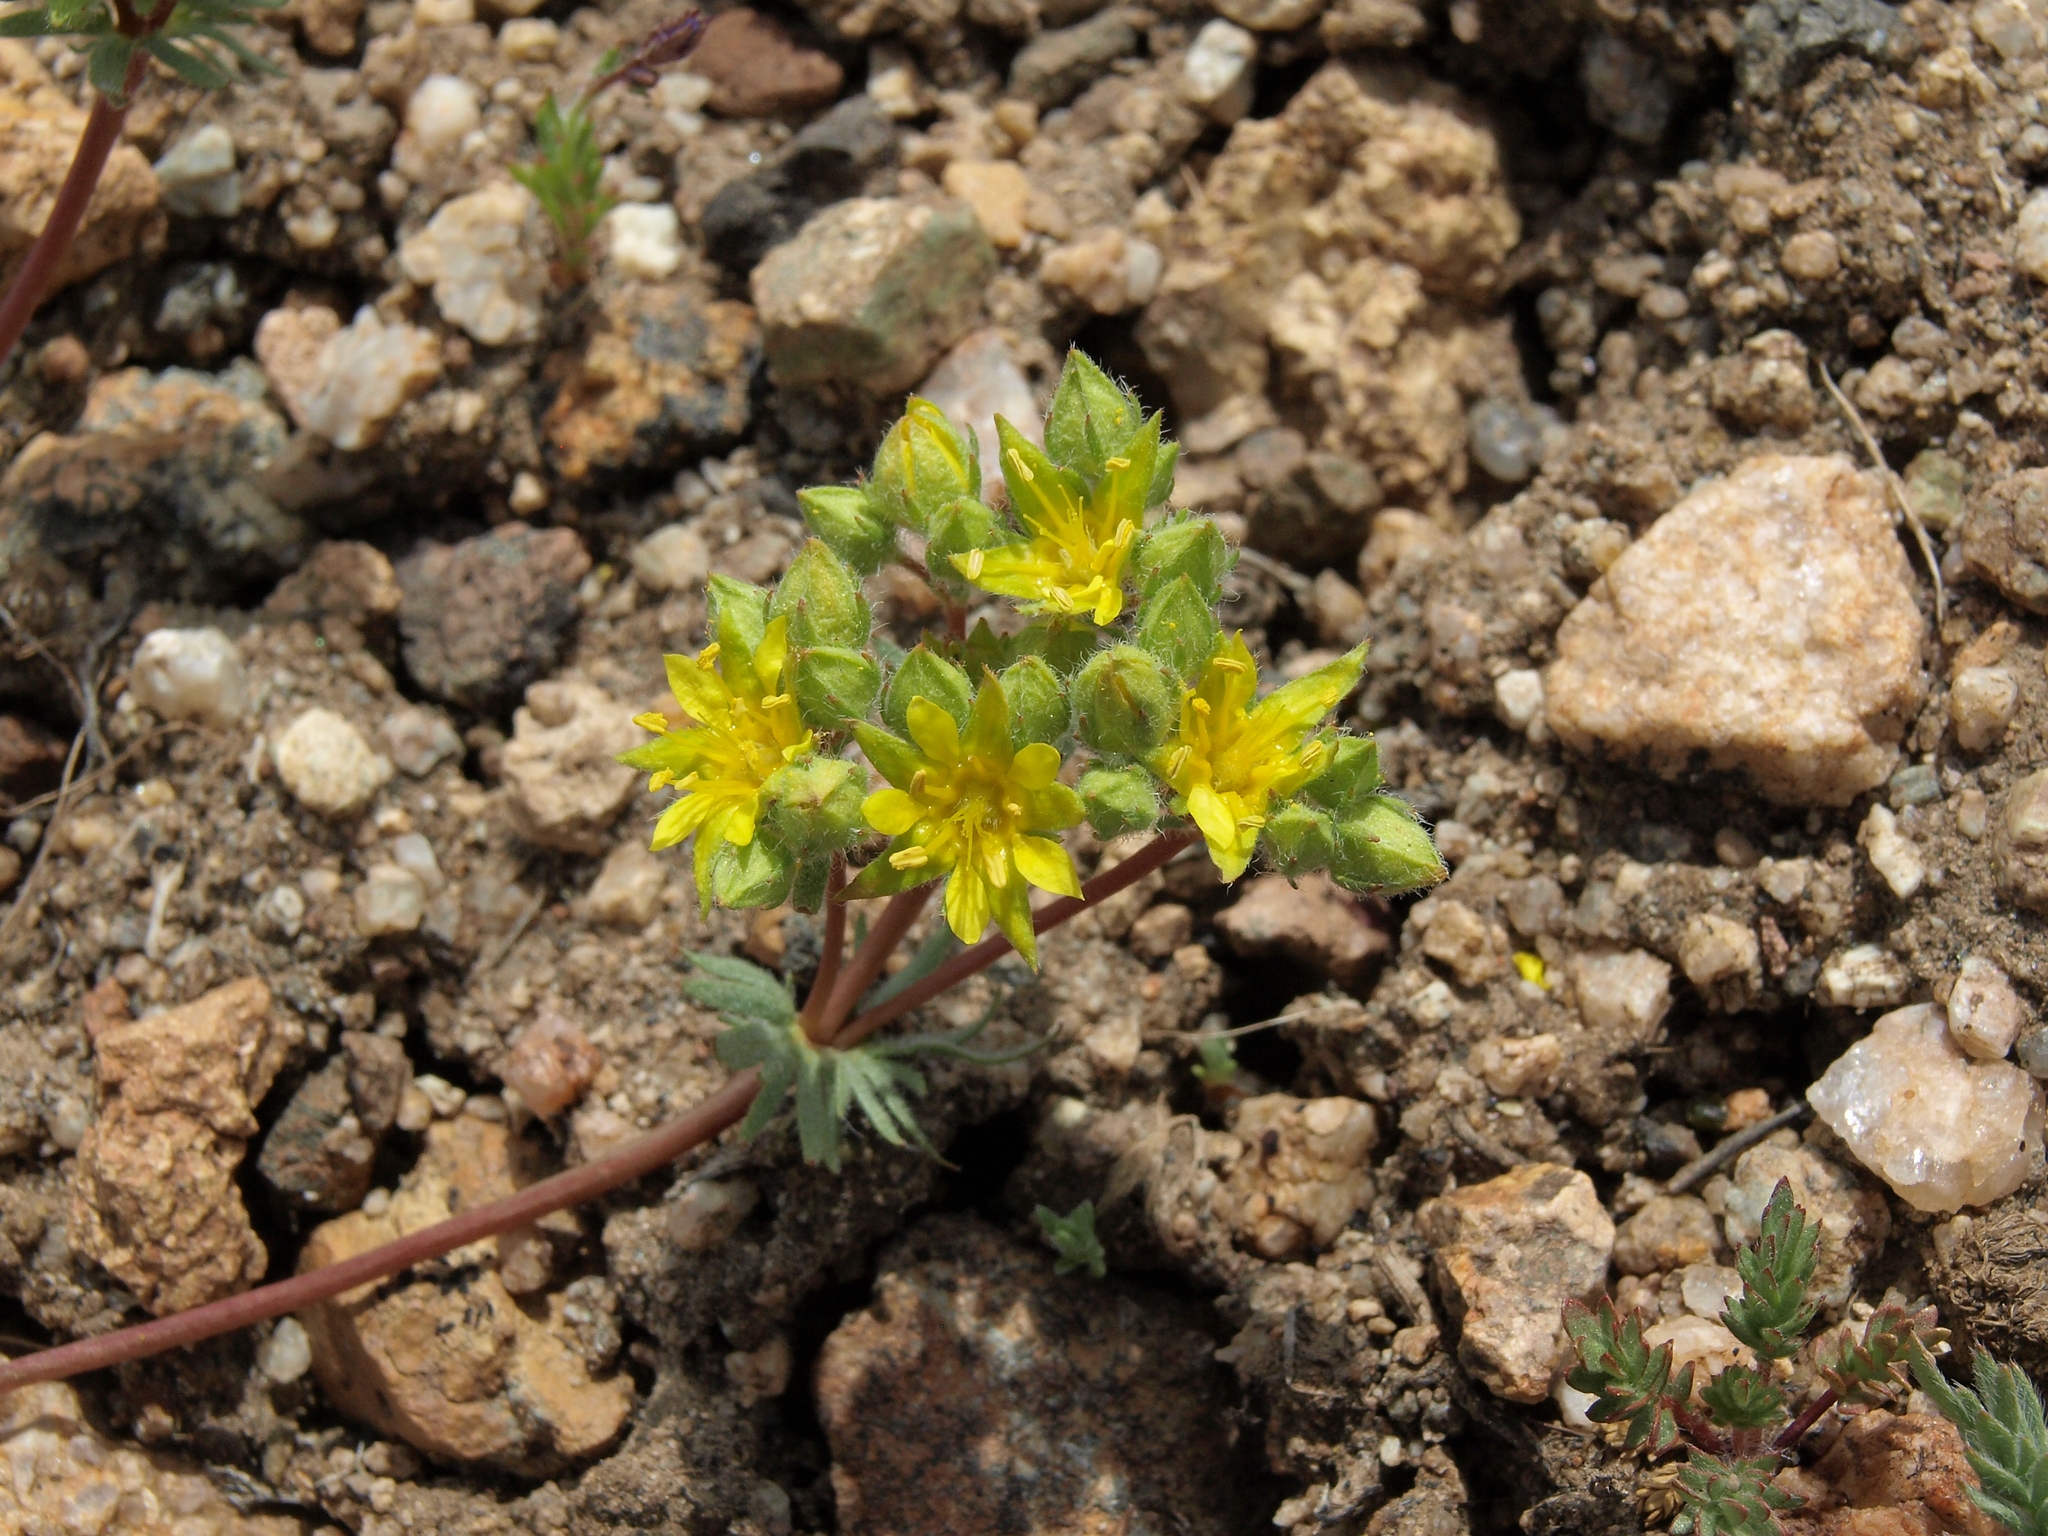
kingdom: Plantae
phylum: Tracheophyta
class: Magnoliopsida
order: Rosales
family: Rosaceae
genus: Potentilla
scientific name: Potentilla webberi
